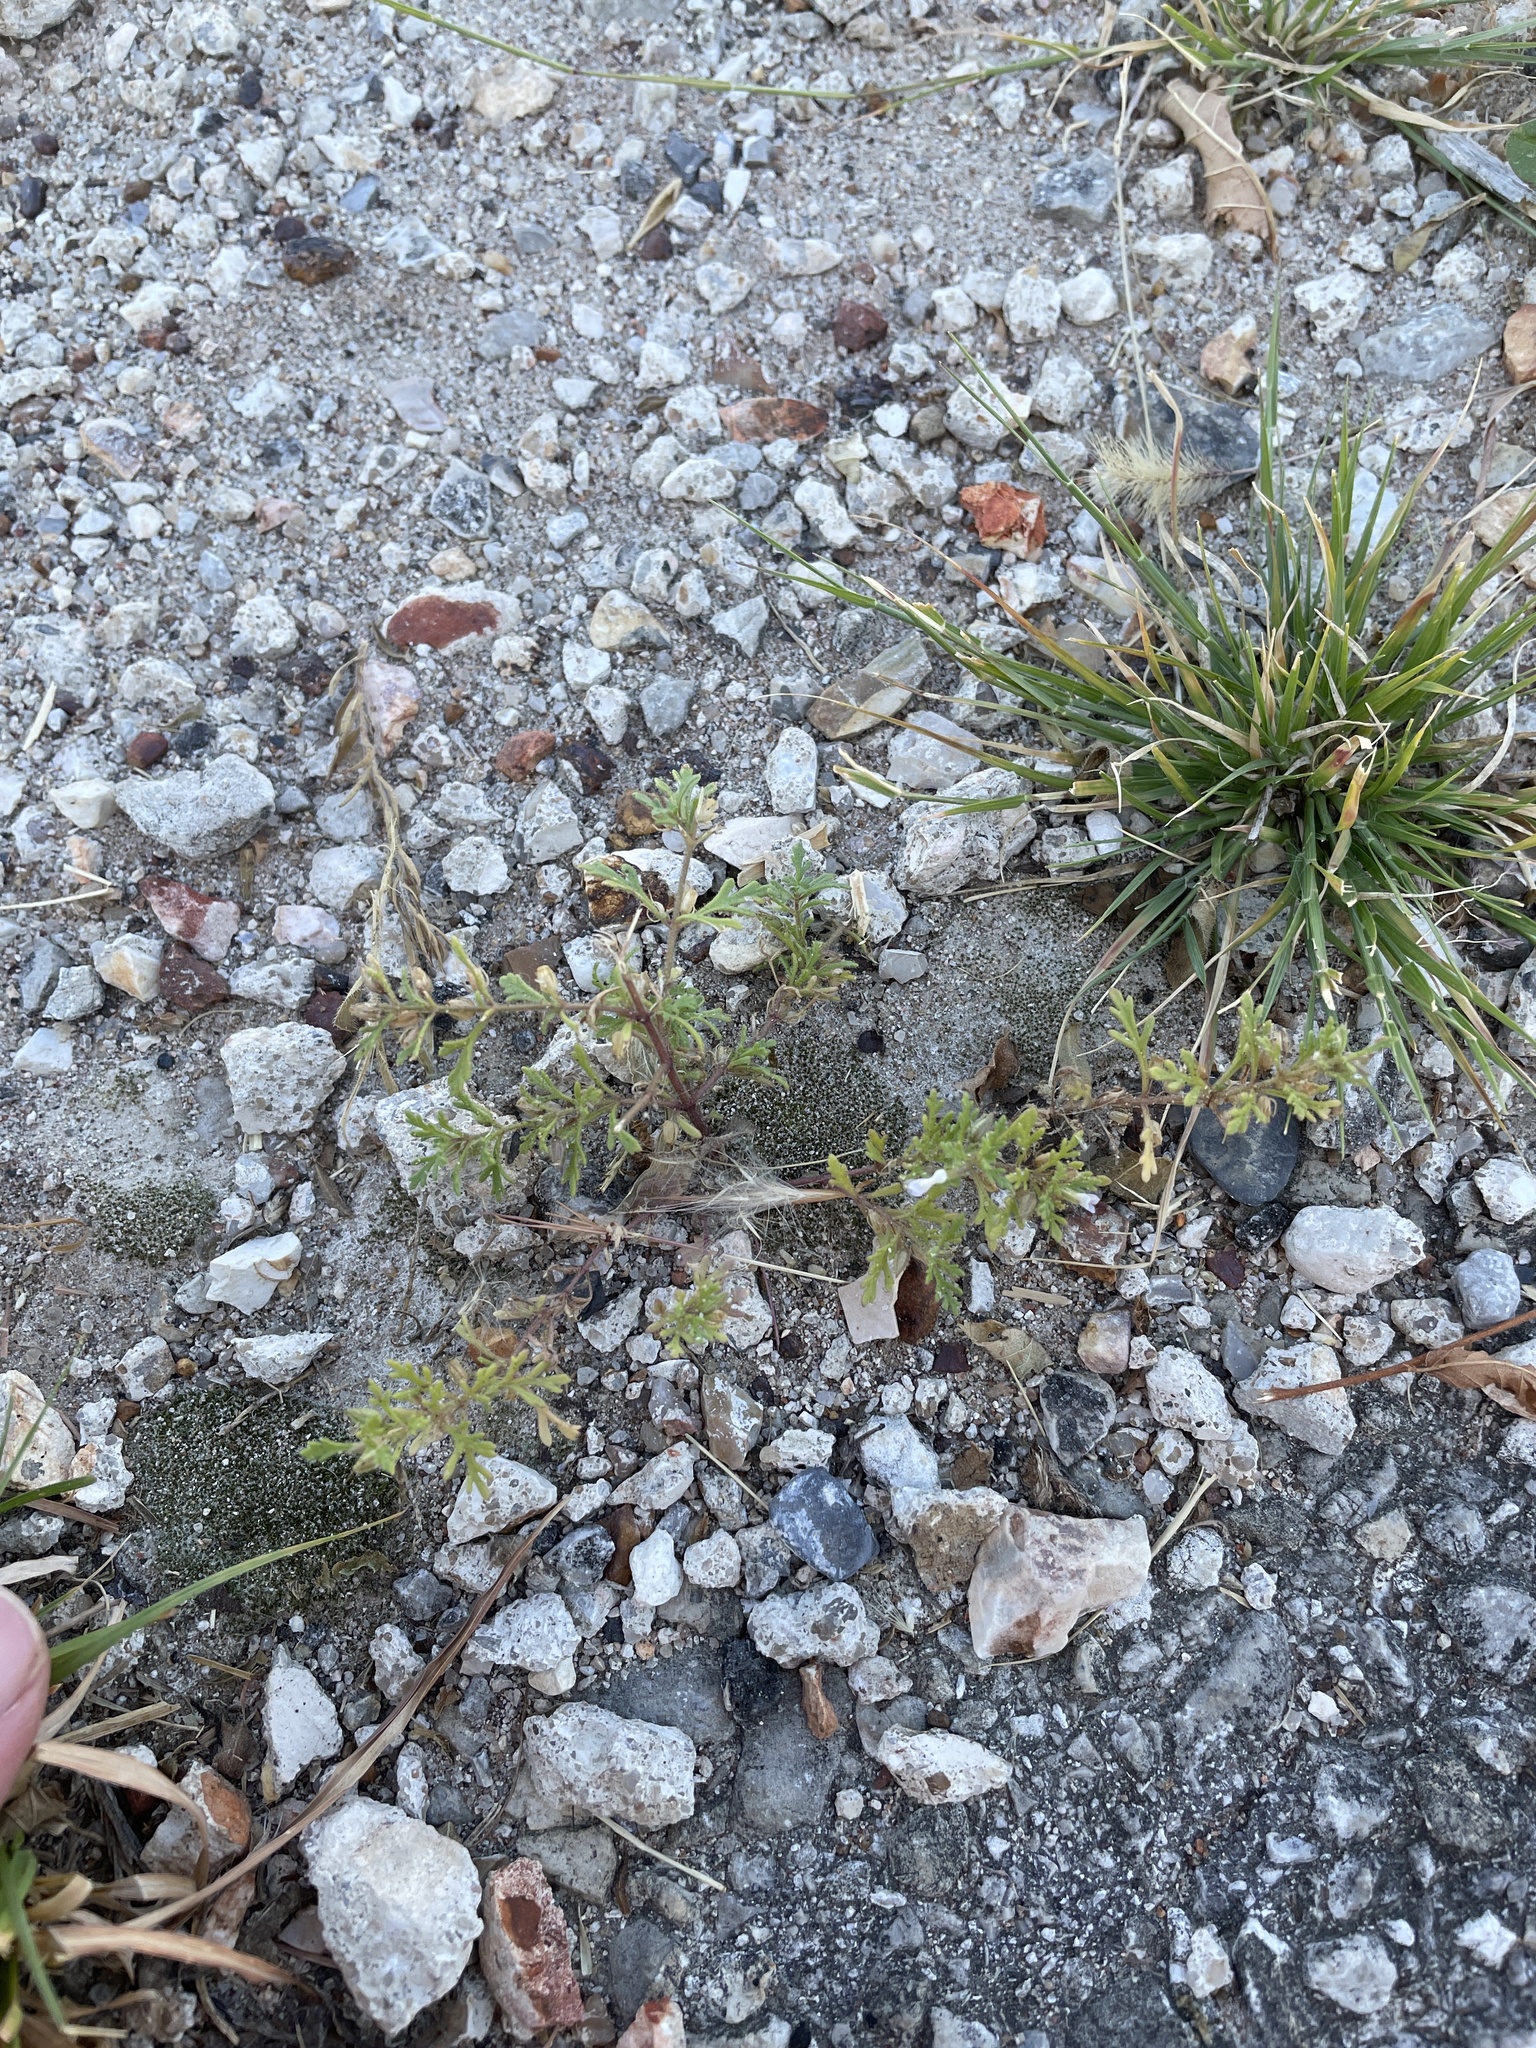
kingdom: Plantae
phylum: Tracheophyta
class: Magnoliopsida
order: Lamiales
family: Plantaginaceae
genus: Leucospora
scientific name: Leucospora multifida
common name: Narrow-leaf paleseed
